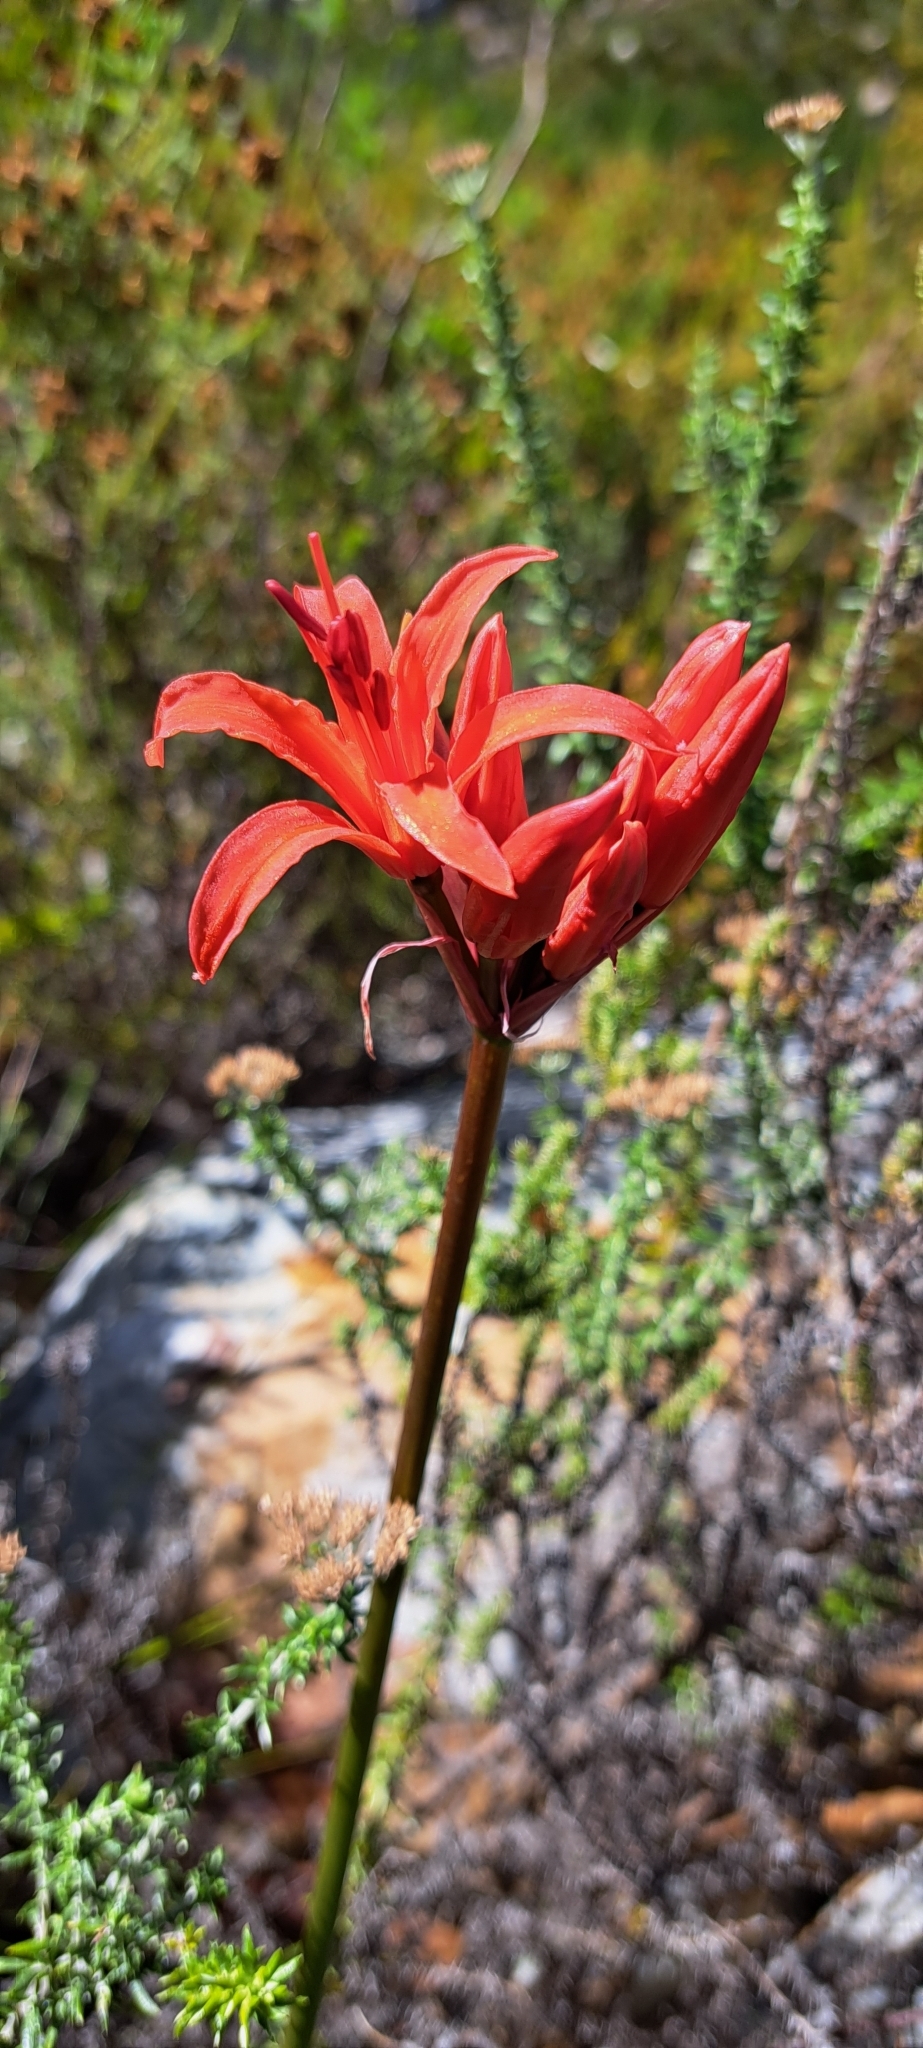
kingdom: Plantae
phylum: Tracheophyta
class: Liliopsida
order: Asparagales
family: Amaryllidaceae
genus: Nerine
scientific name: Nerine sarniensis
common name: Guernsey-lily
